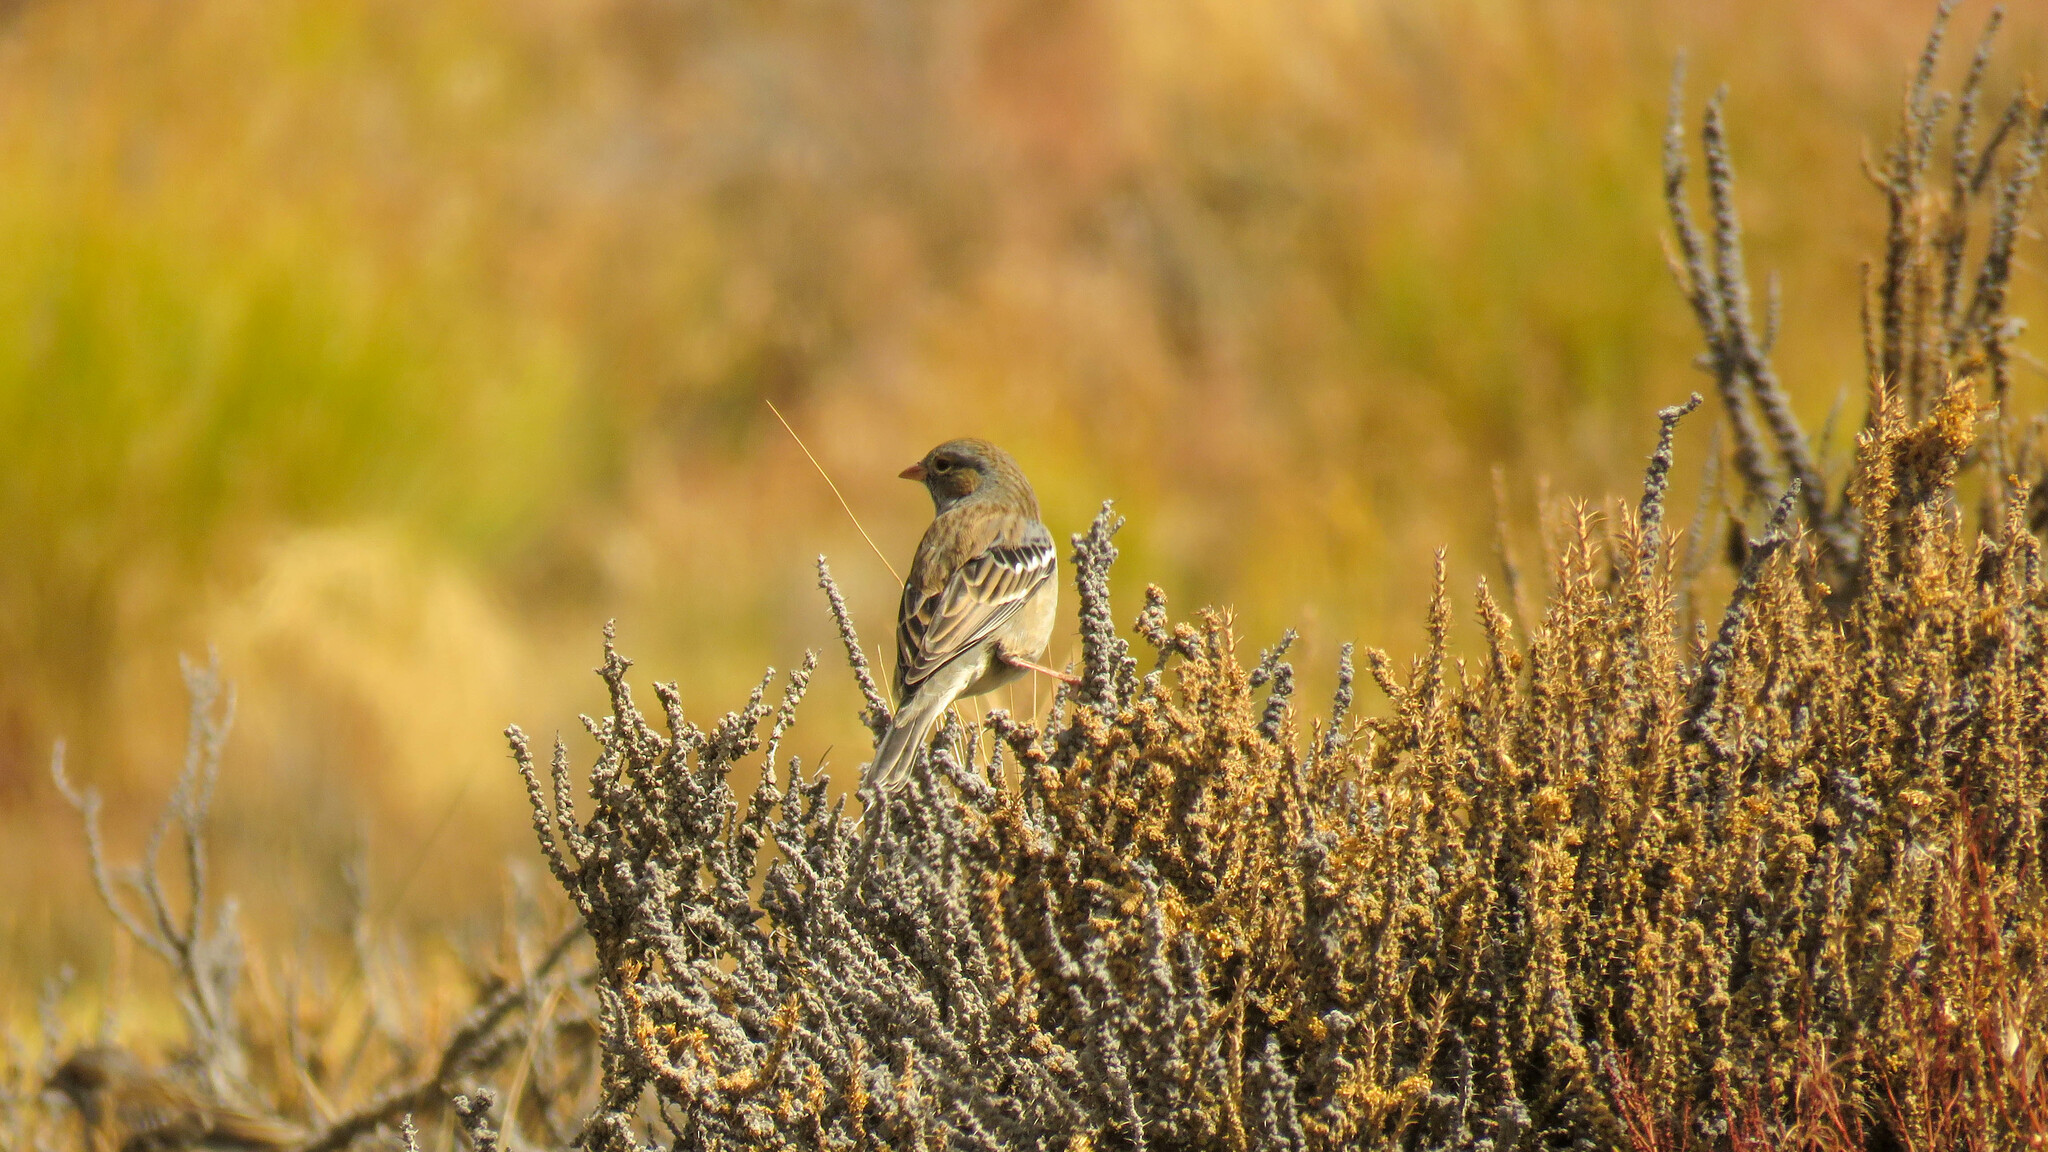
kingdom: Animalia
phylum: Chordata
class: Aves
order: Passeriformes
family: Thraupidae
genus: Rhopospina
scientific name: Rhopospina fruticeti
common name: Mourning sierra finch
